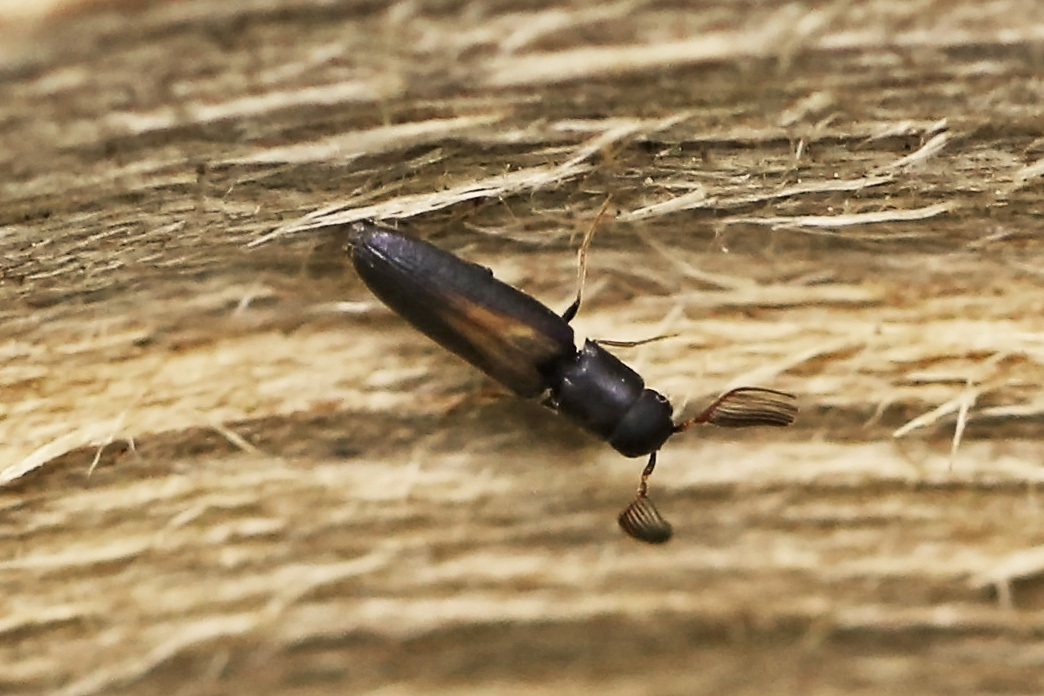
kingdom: Animalia
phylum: Arthropoda
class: Insecta
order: Coleoptera
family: Eucnemidae
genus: Isorhipis
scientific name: Isorhipis obliqua
